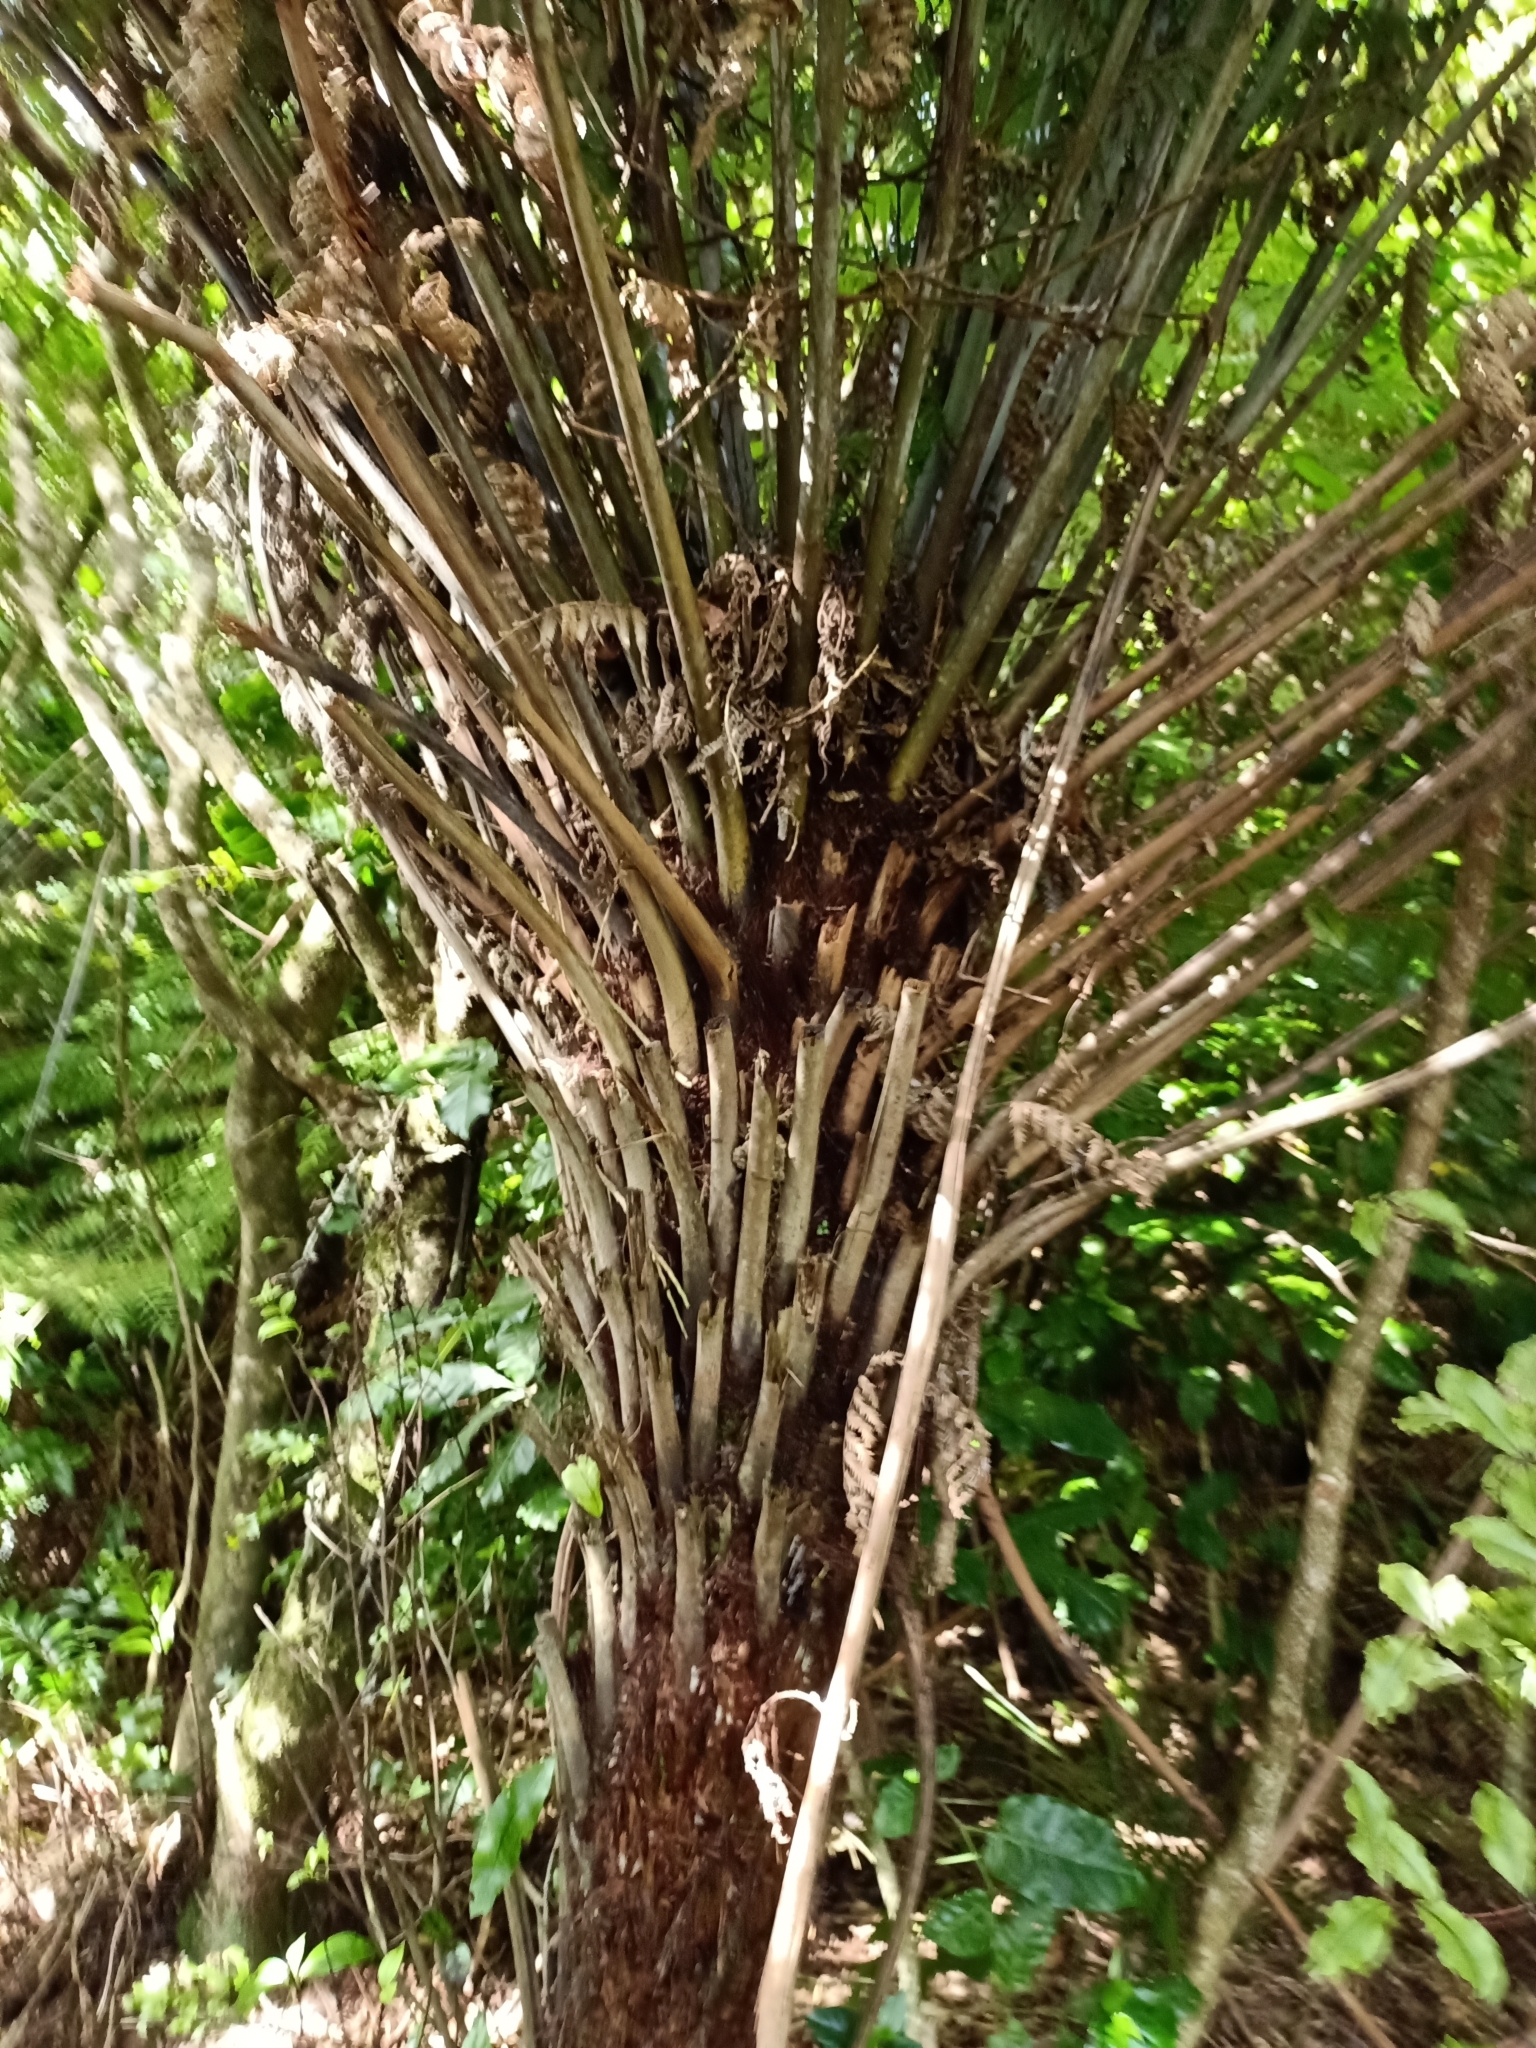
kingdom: Plantae
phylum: Tracheophyta
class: Polypodiopsida
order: Cyatheales
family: Cyatheaceae
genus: Alsophila
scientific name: Alsophila dealbata
